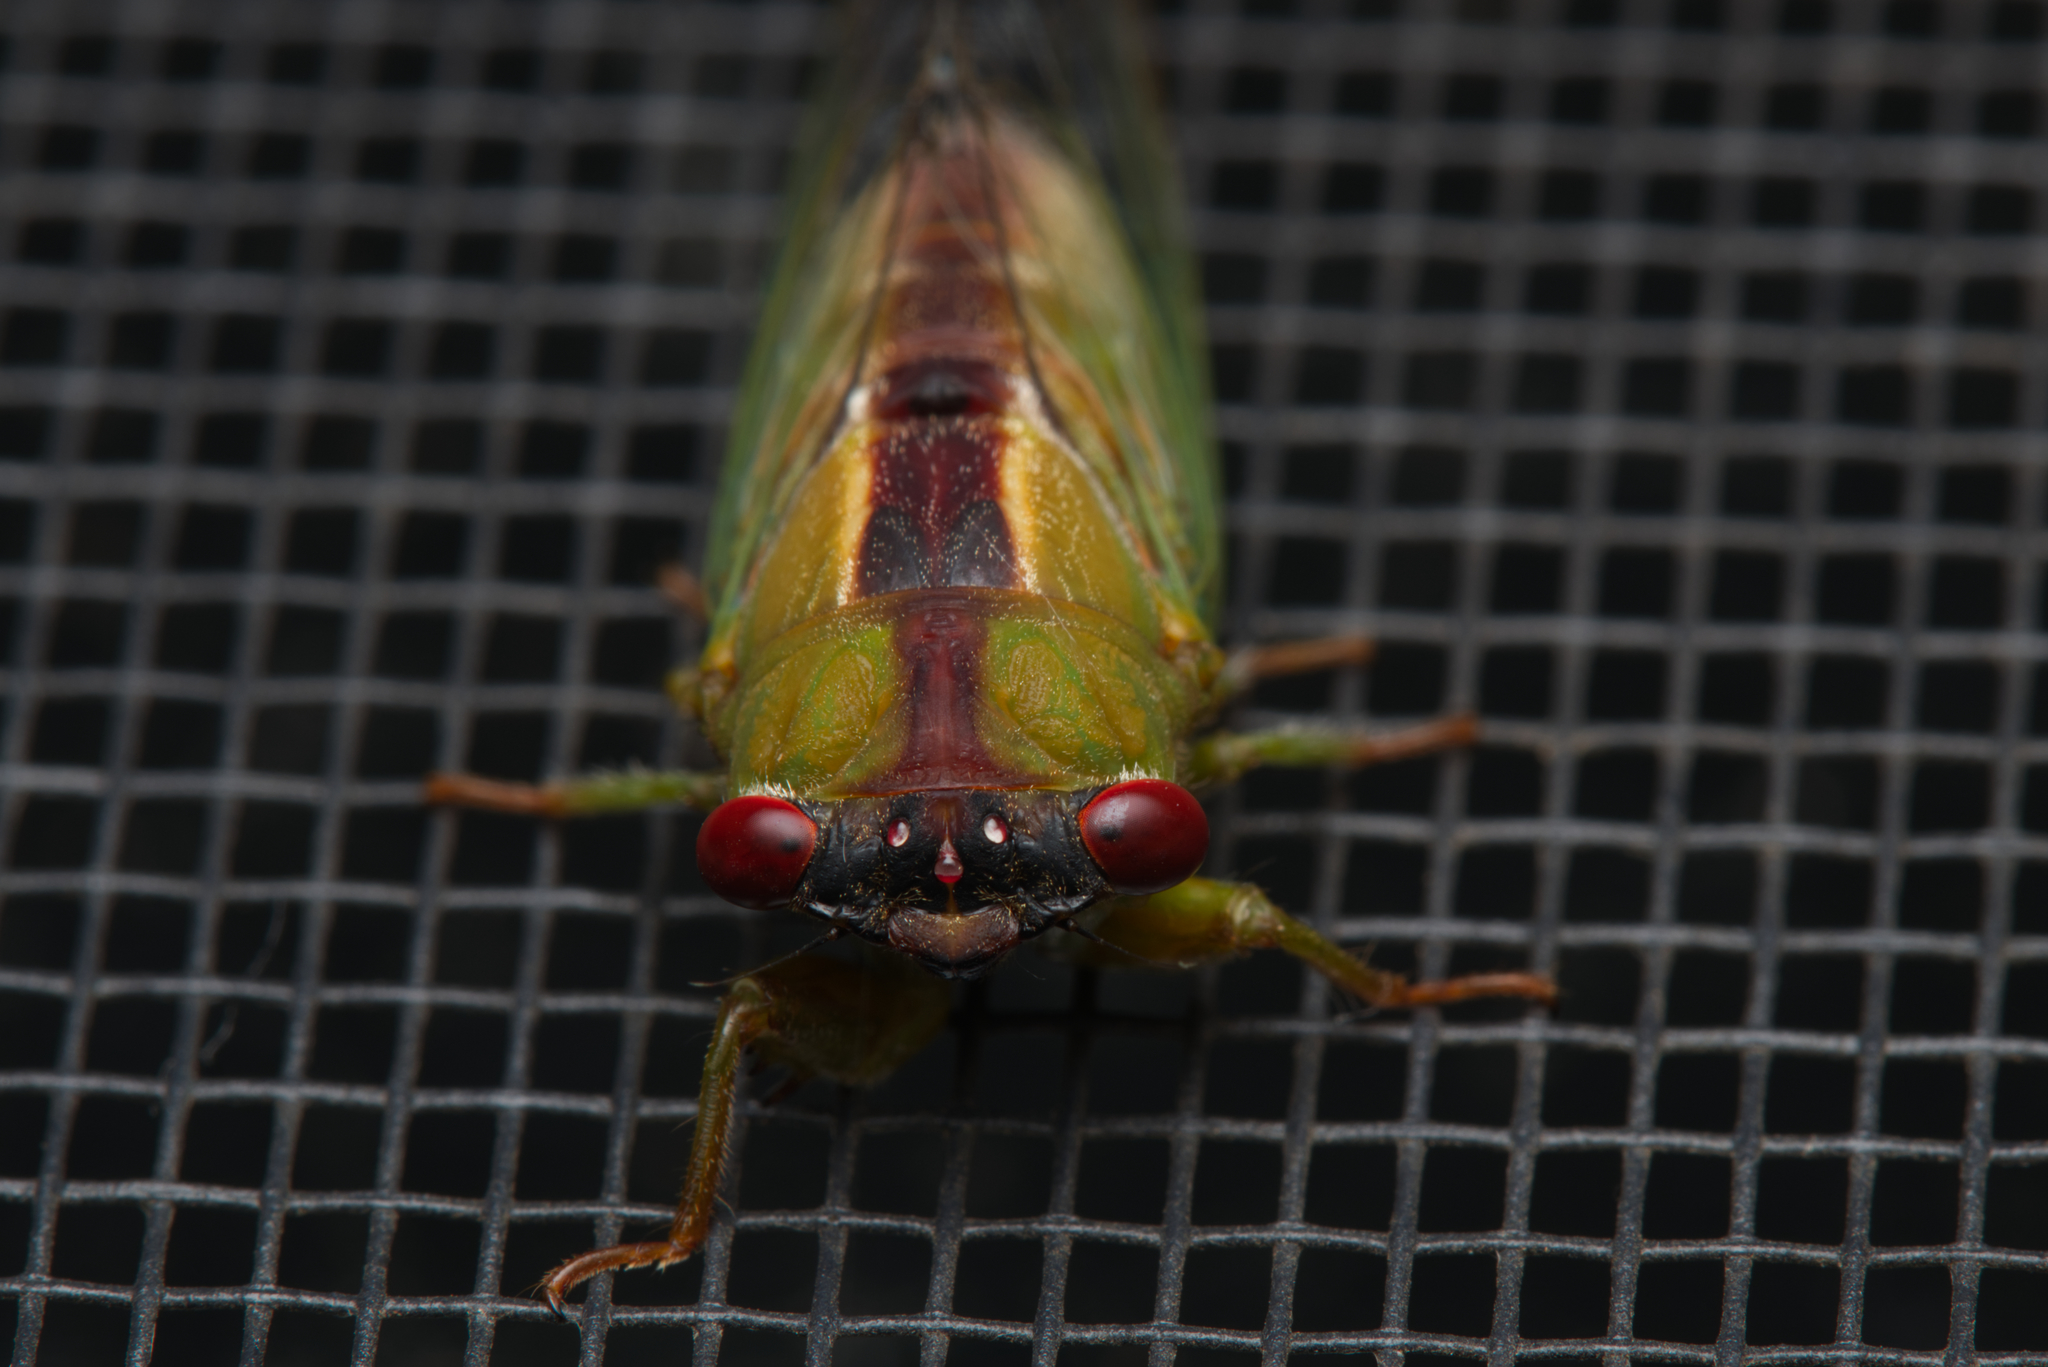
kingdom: Animalia
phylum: Arthropoda
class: Insecta
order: Hemiptera
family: Cicadidae
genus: Ewartia
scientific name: Ewartia oldfieldi
